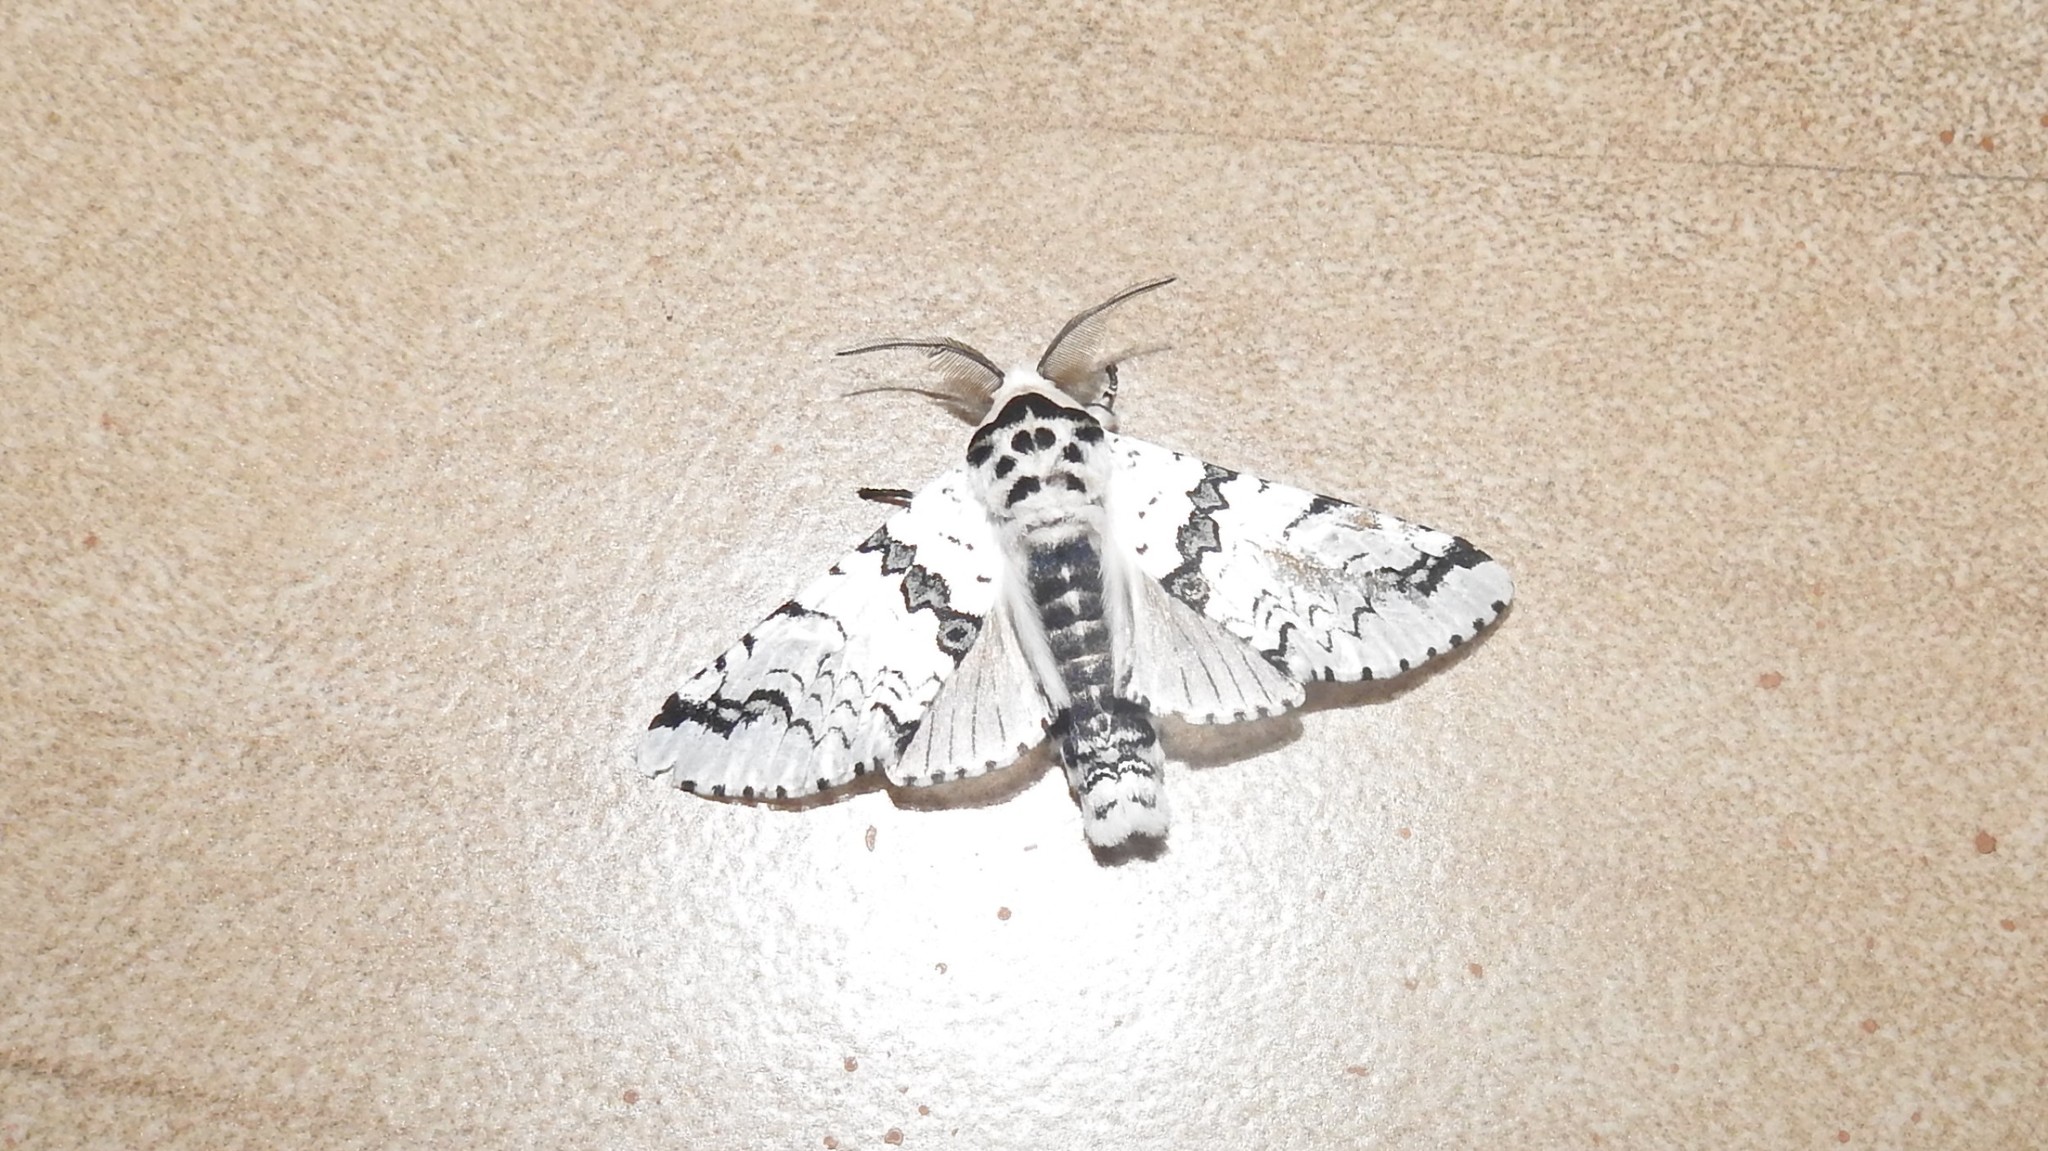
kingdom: Animalia
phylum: Arthropoda
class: Insecta
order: Lepidoptera
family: Notodontidae
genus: Neocerura
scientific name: Neocerura liturata
